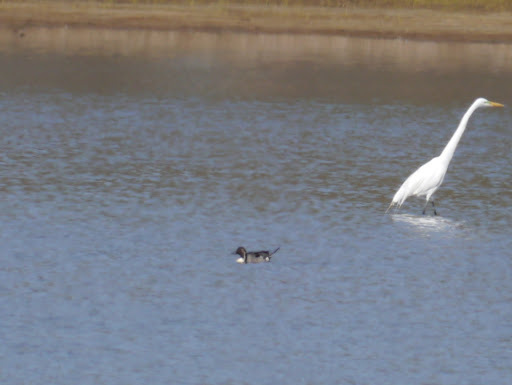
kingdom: Animalia
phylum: Chordata
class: Aves
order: Anseriformes
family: Anatidae
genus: Anas
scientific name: Anas acuta
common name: Northern pintail
